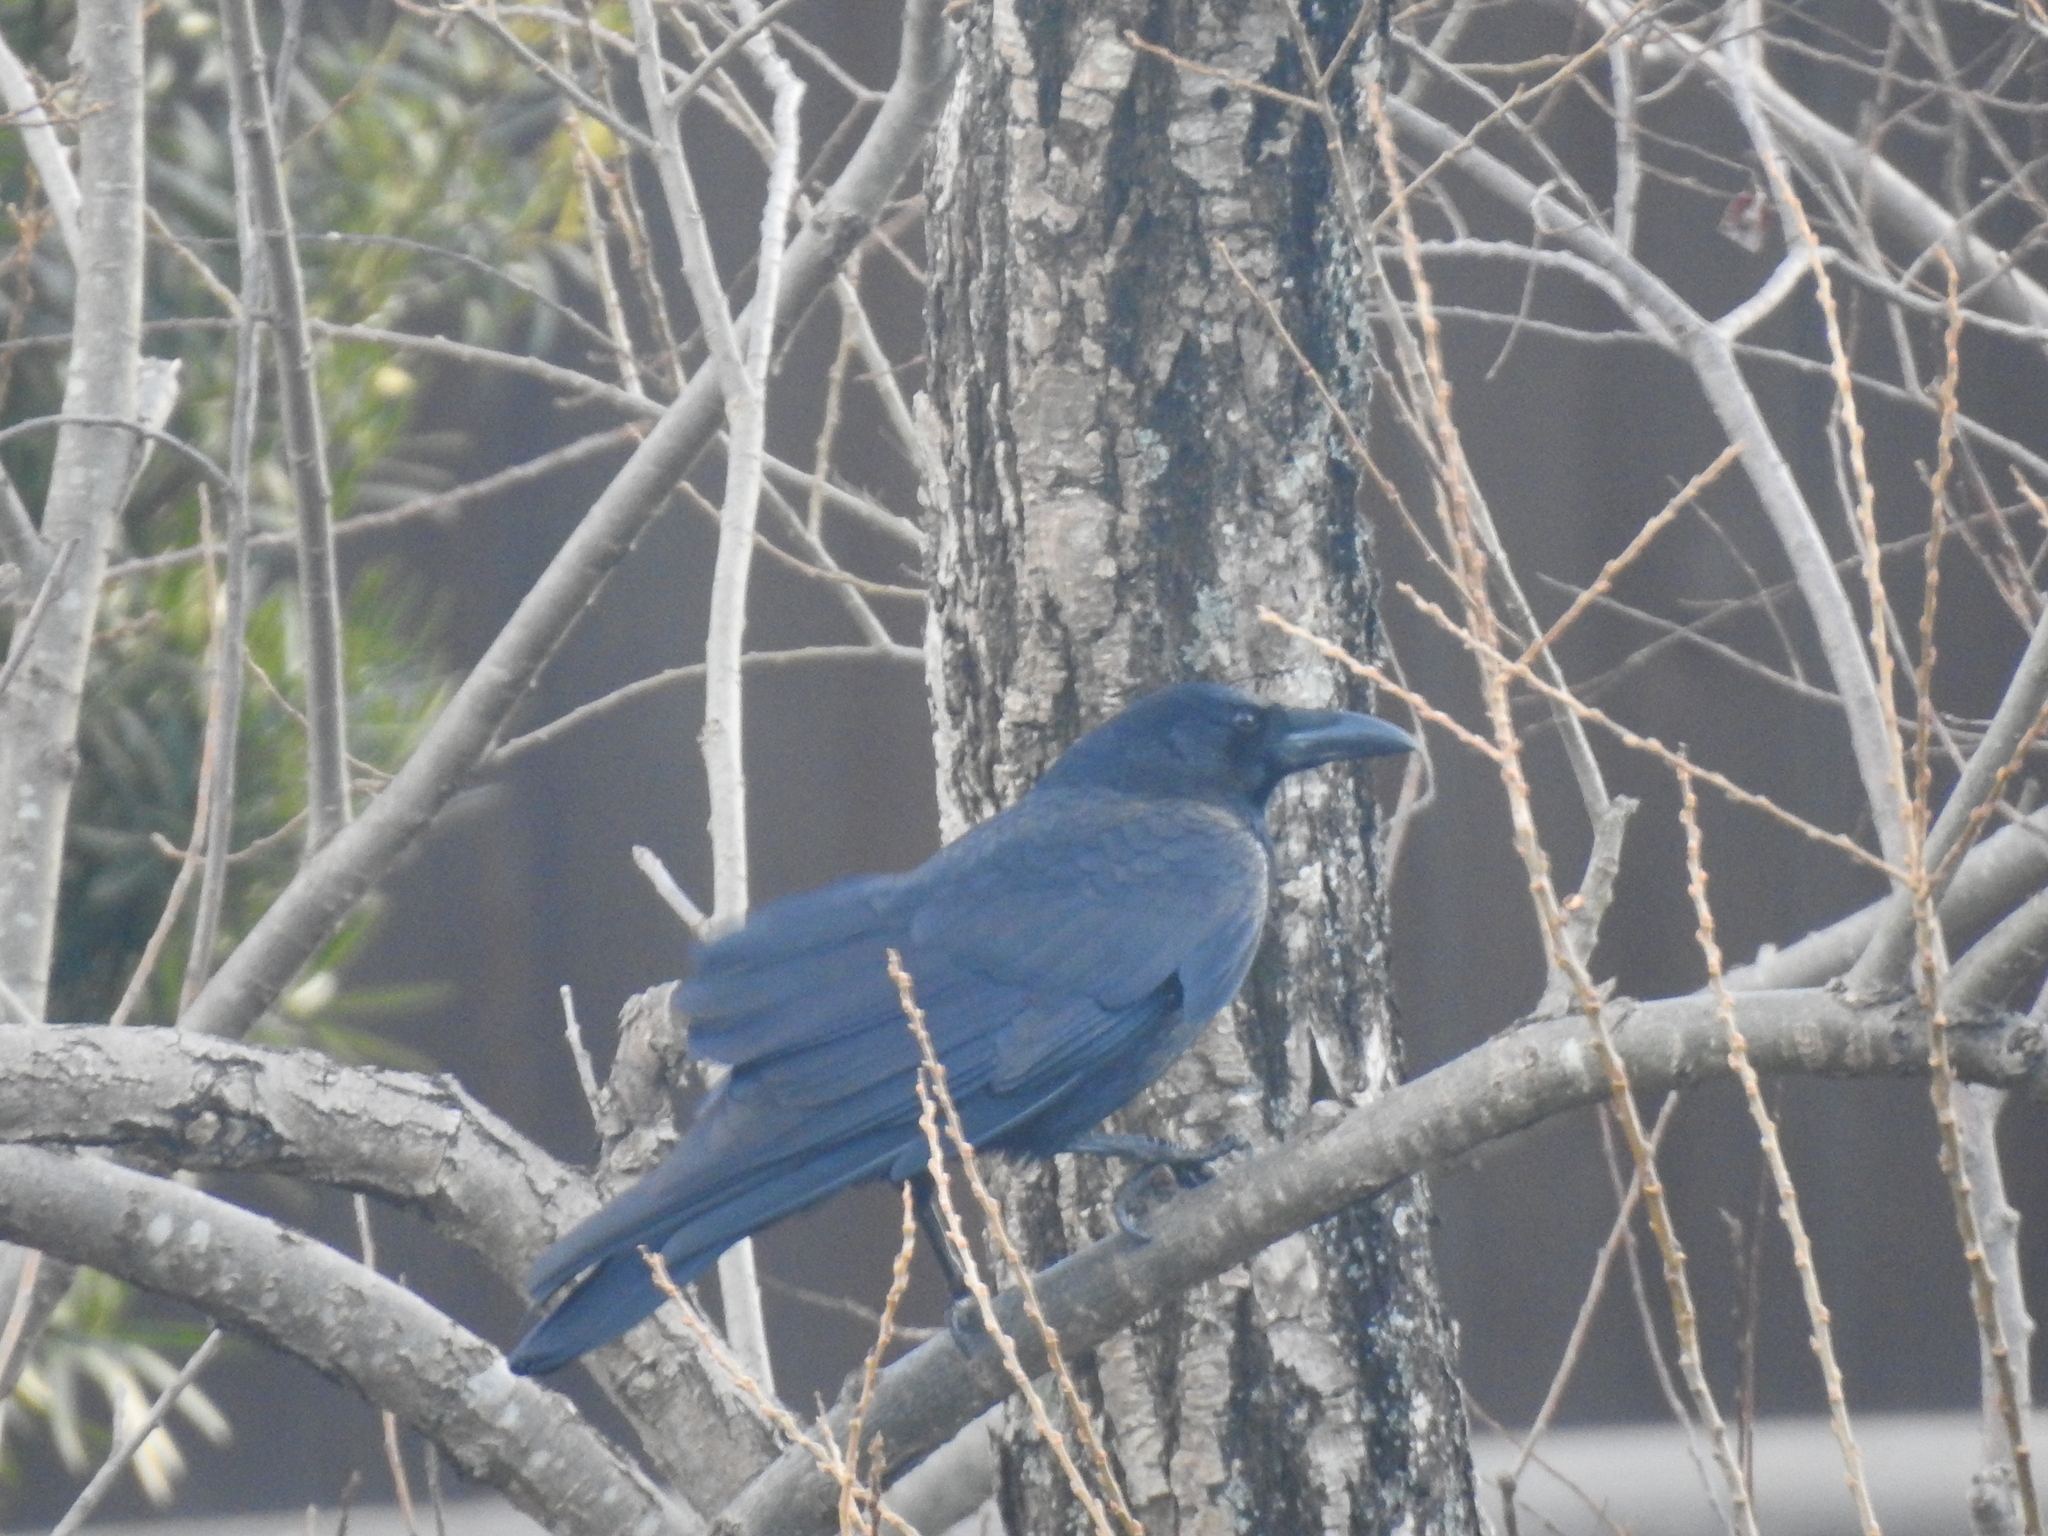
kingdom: Animalia
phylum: Chordata
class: Aves
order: Passeriformes
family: Corvidae
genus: Corvus
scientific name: Corvus macrorhynchos
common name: Large-billed crow
